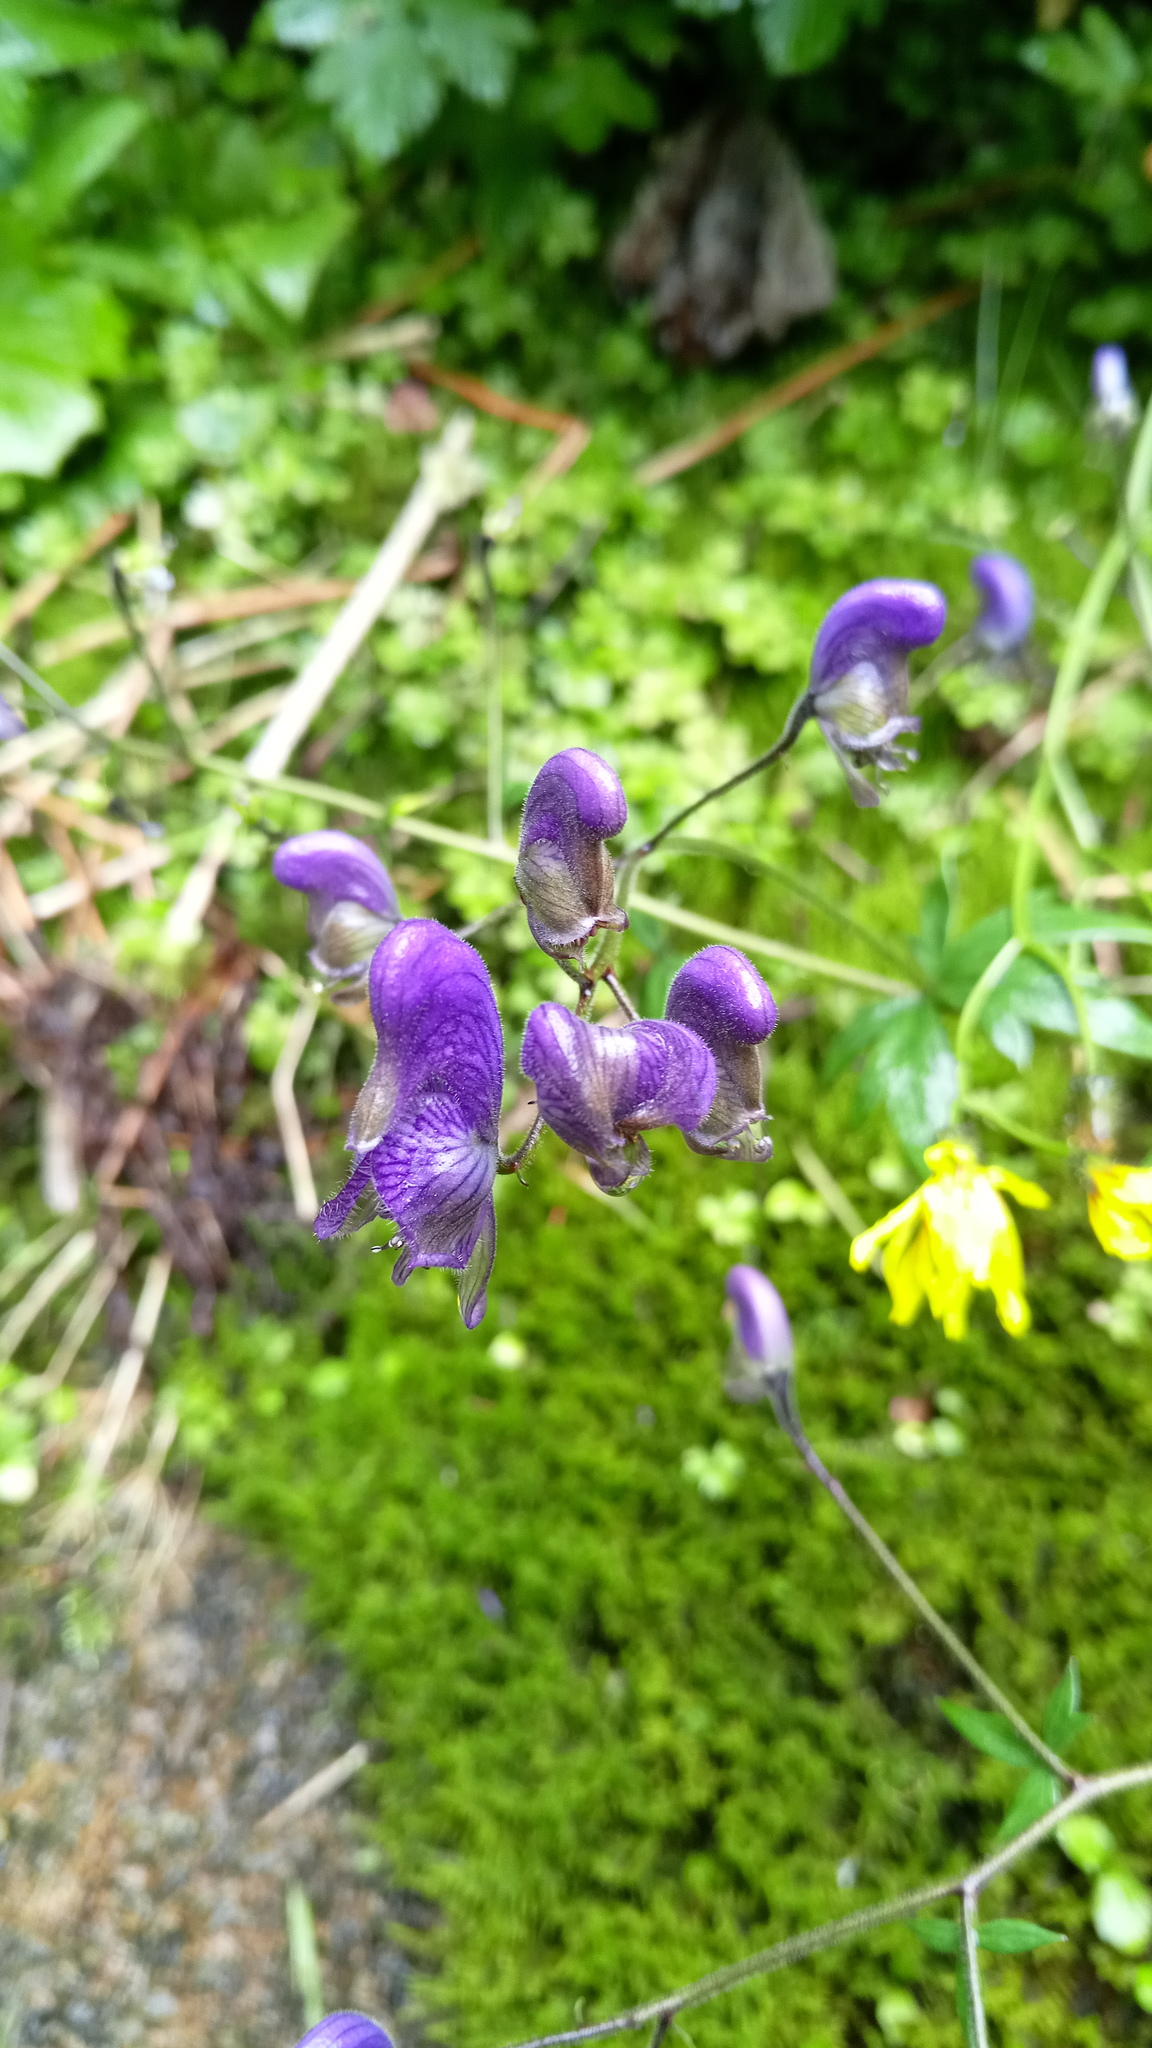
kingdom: Plantae
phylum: Tracheophyta
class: Magnoliopsida
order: Ranunculales
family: Ranunculaceae
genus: Aconitum
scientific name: Aconitum degenii
